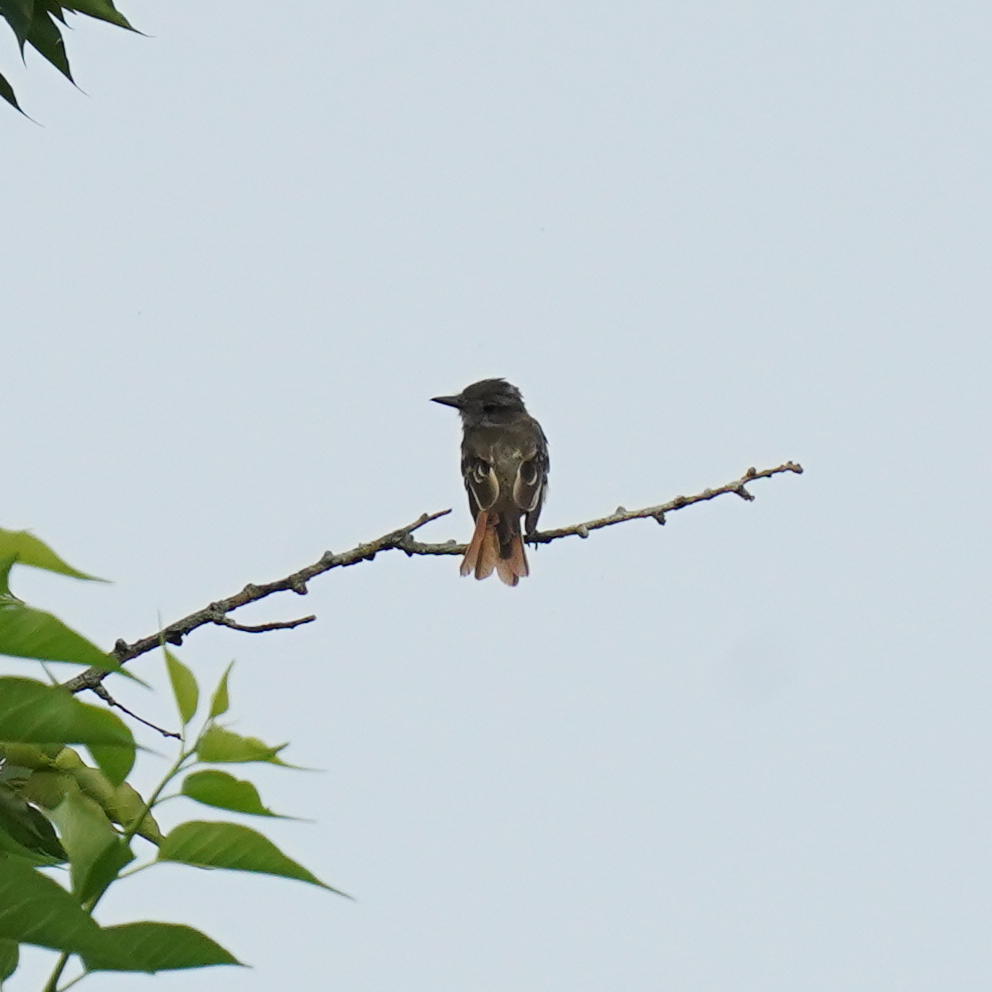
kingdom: Animalia
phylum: Chordata
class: Aves
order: Passeriformes
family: Tyrannidae
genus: Myiarchus
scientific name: Myiarchus crinitus
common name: Great crested flycatcher
